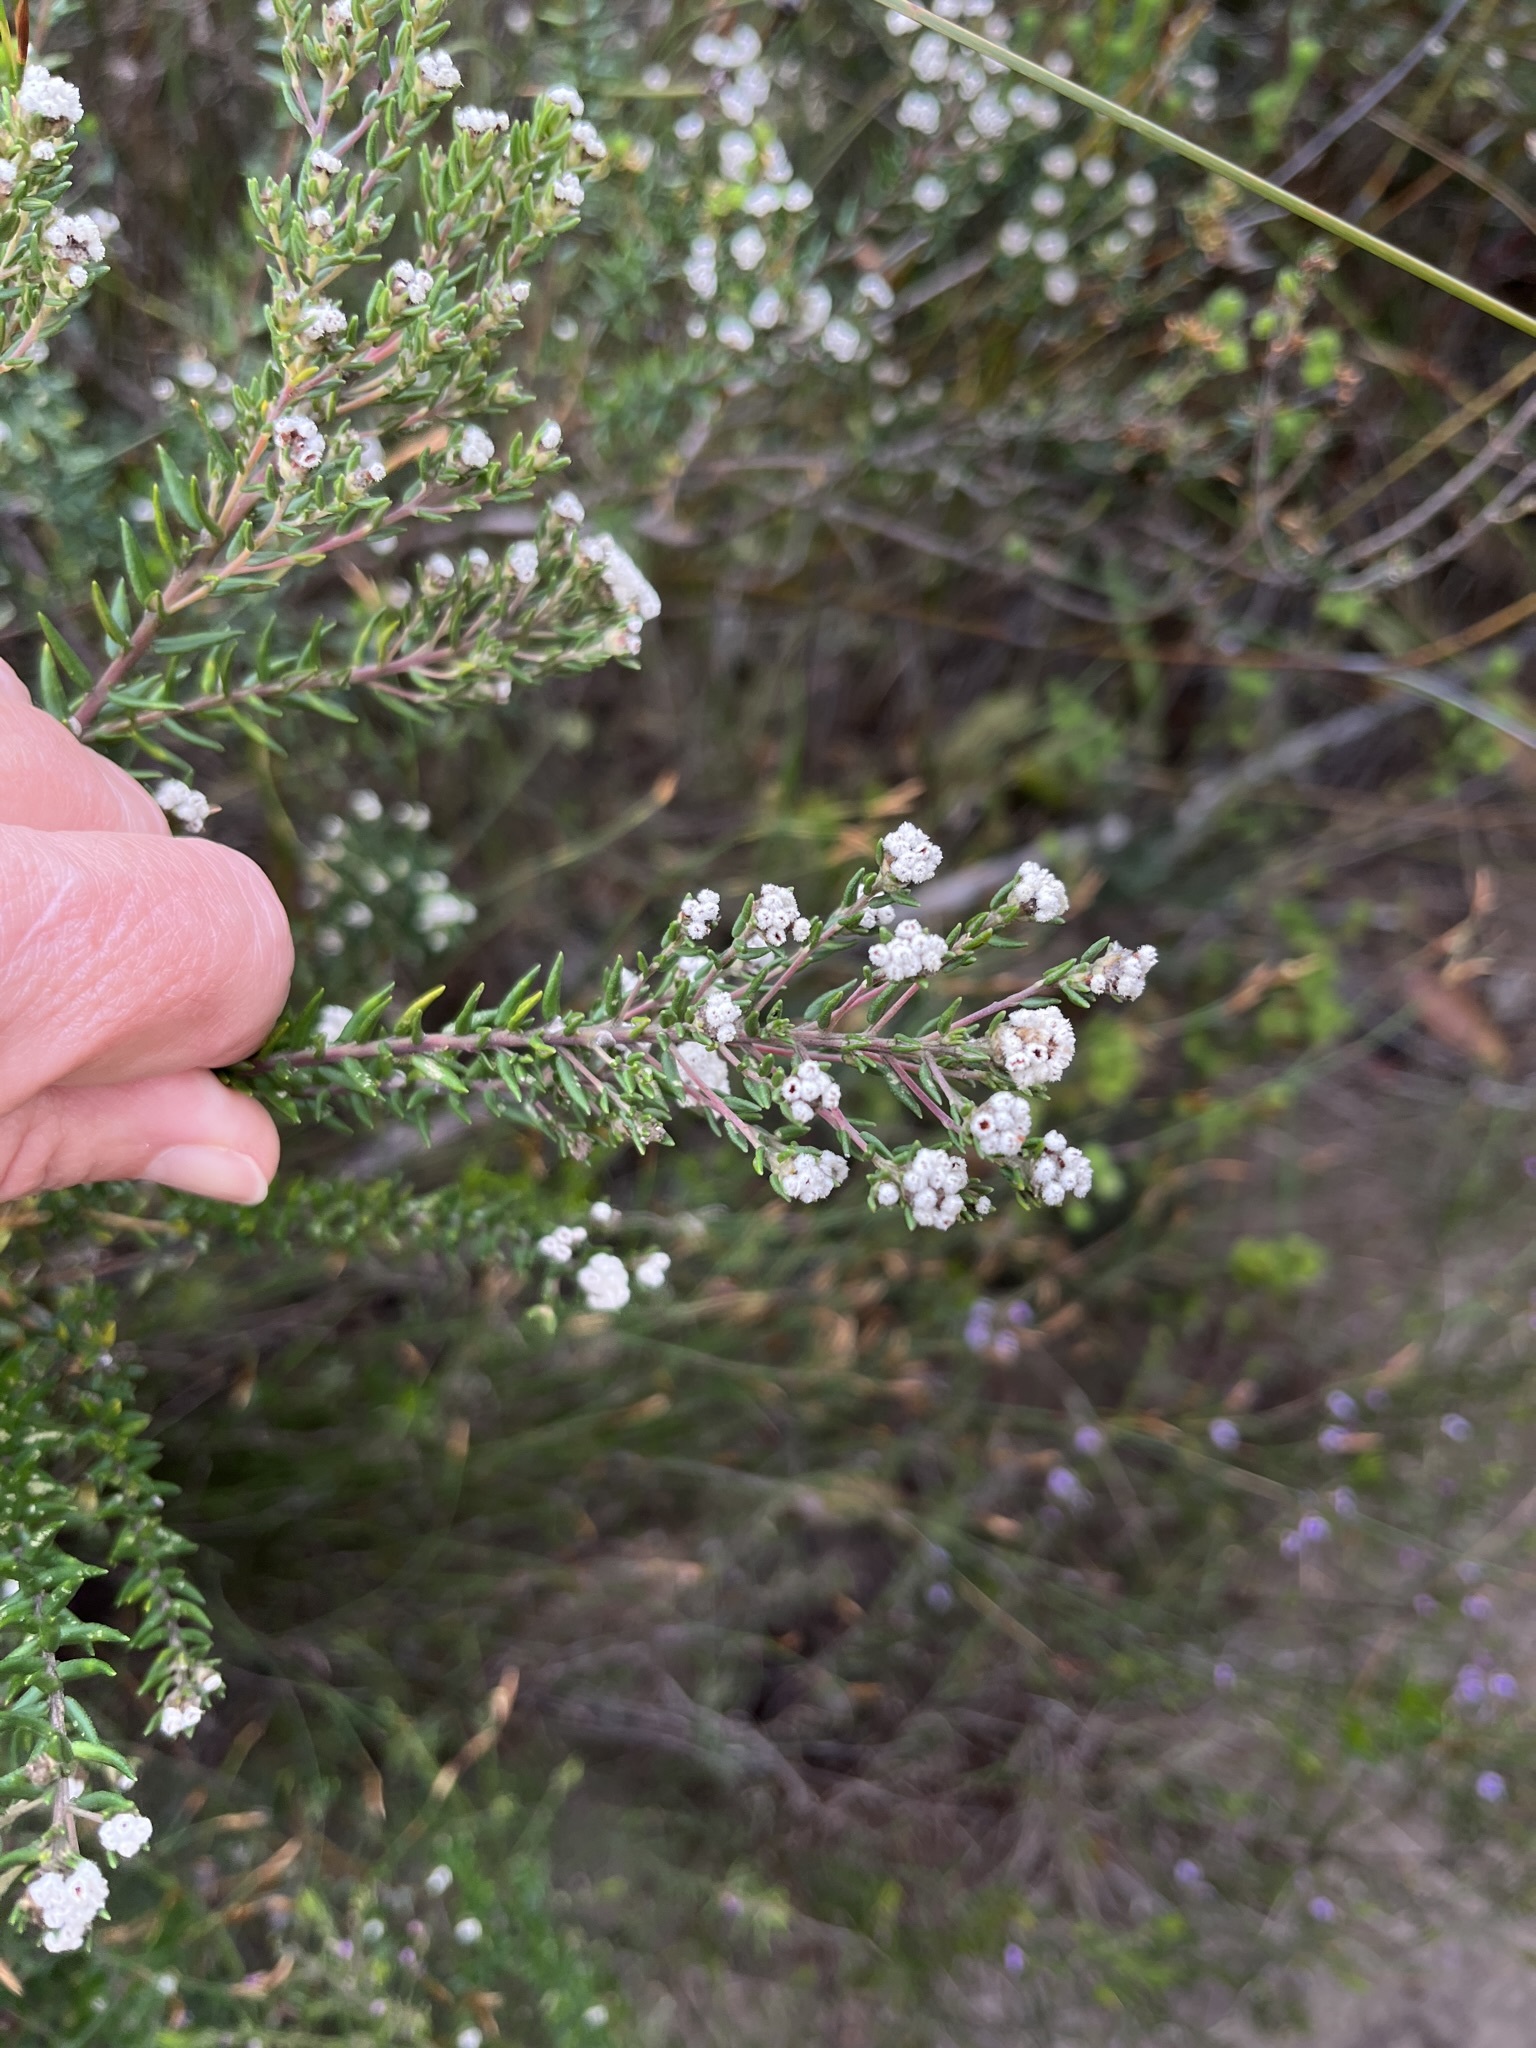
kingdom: Plantae
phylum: Tracheophyta
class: Magnoliopsida
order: Rosales
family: Rhamnaceae
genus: Phylica
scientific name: Phylica diffusa
